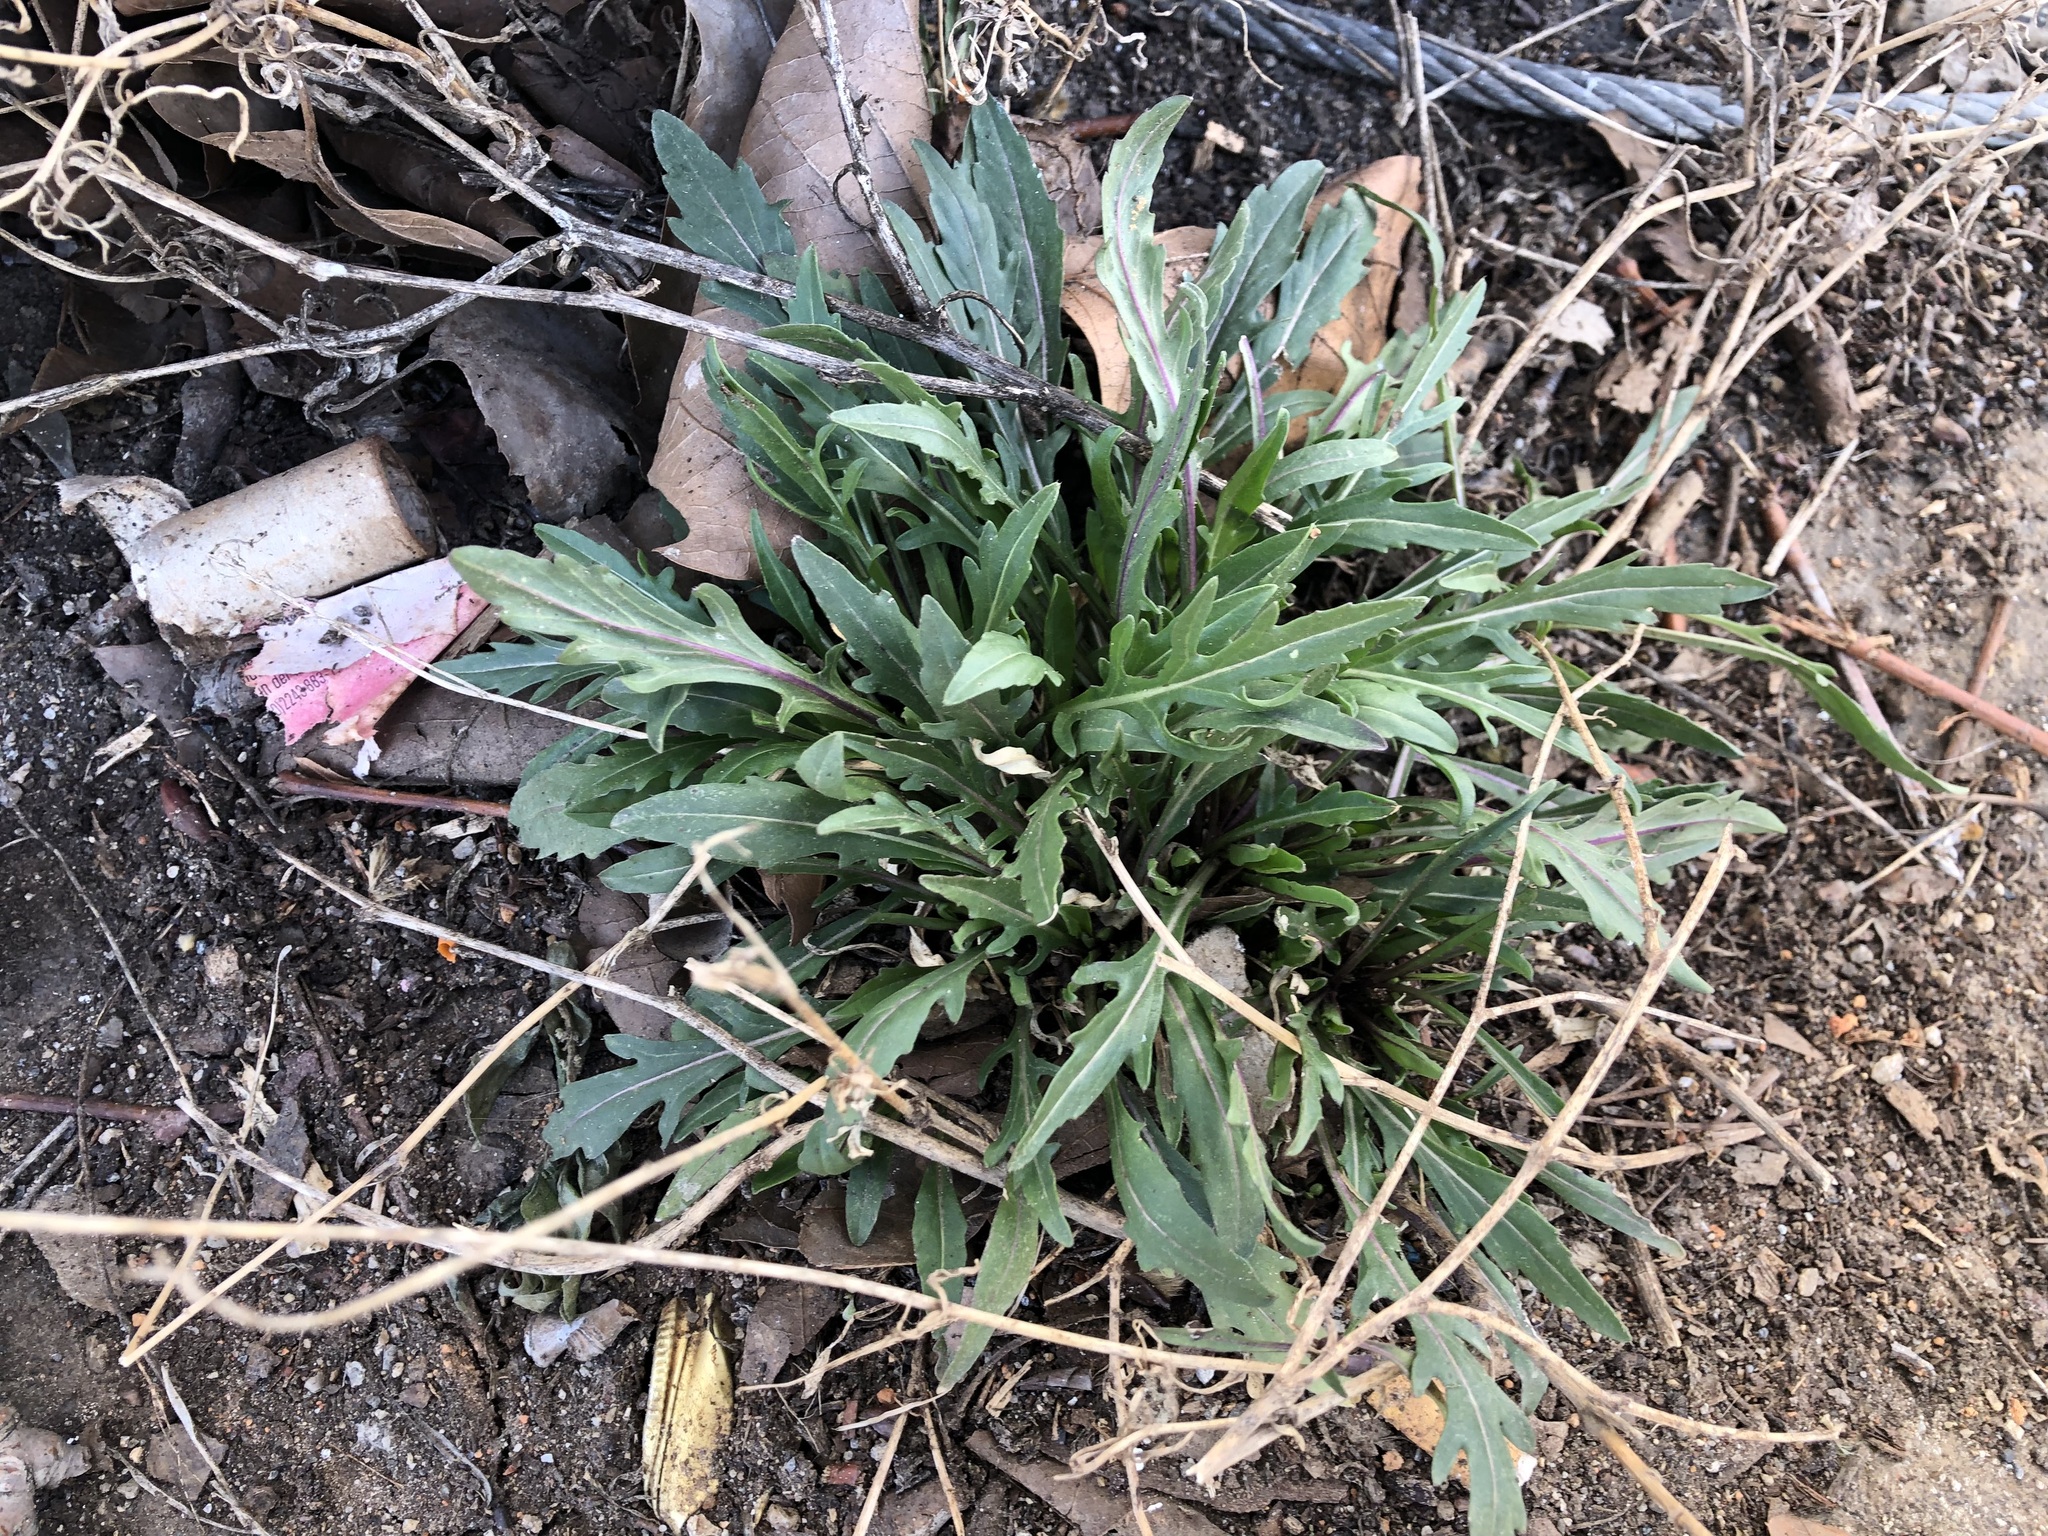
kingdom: Plantae
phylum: Tracheophyta
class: Magnoliopsida
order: Brassicales
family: Brassicaceae
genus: Diplotaxis
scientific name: Diplotaxis tenuifolia
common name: Perennial wall-rocket
